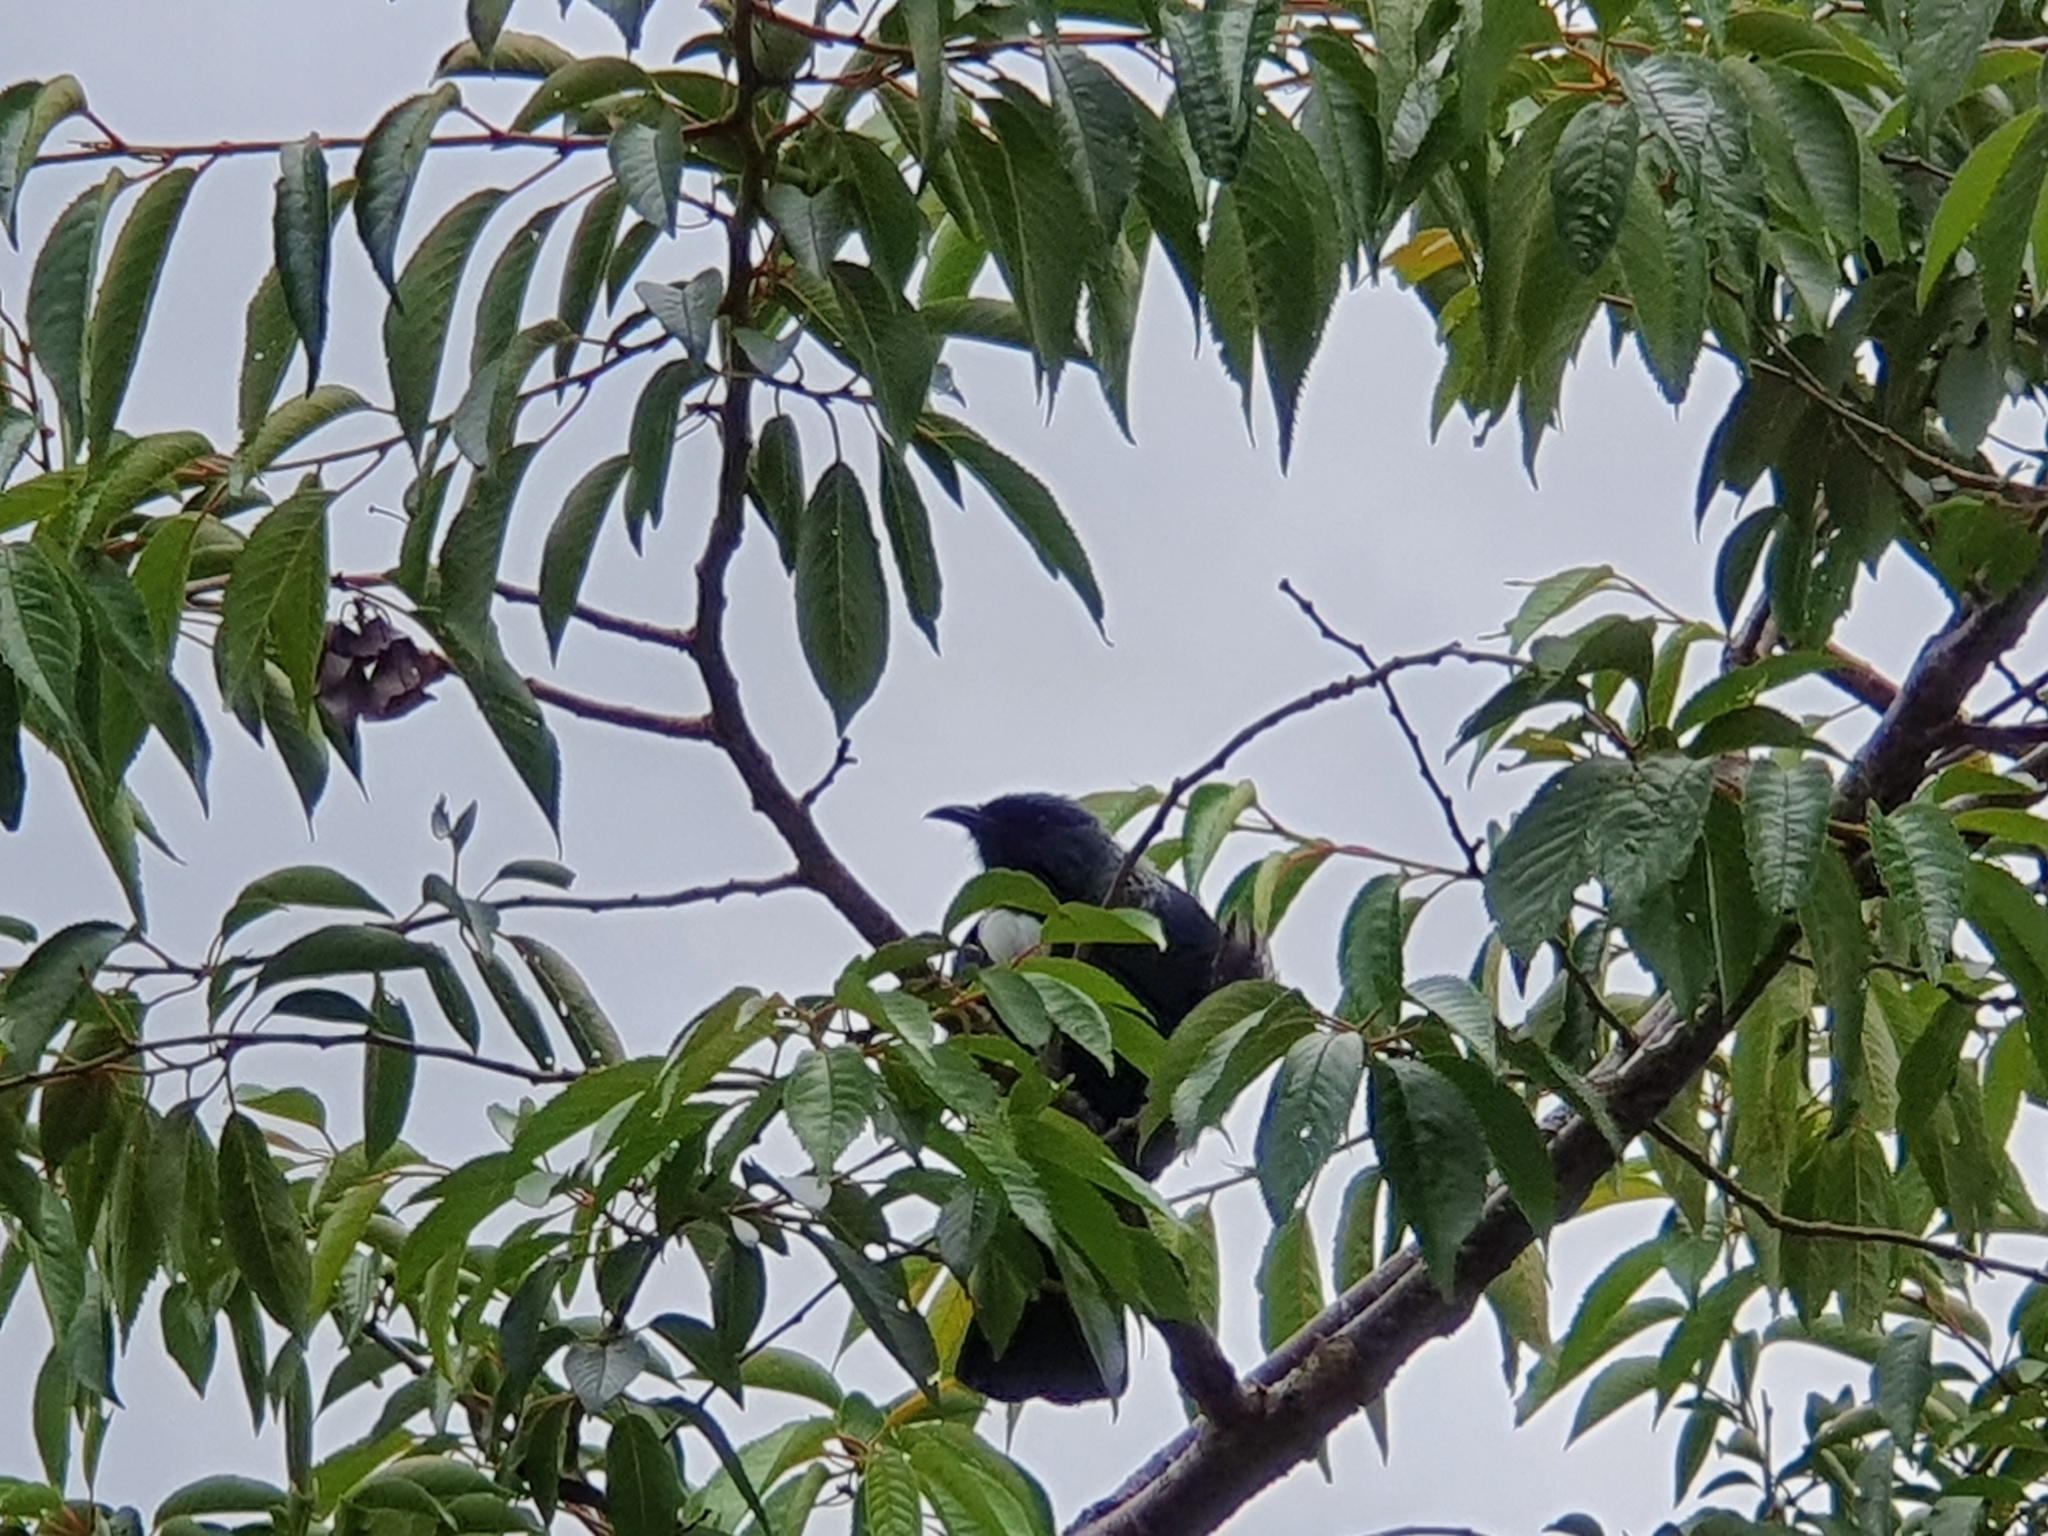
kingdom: Animalia
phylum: Chordata
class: Aves
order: Passeriformes
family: Meliphagidae
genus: Prosthemadera
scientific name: Prosthemadera novaeseelandiae
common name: Tui
